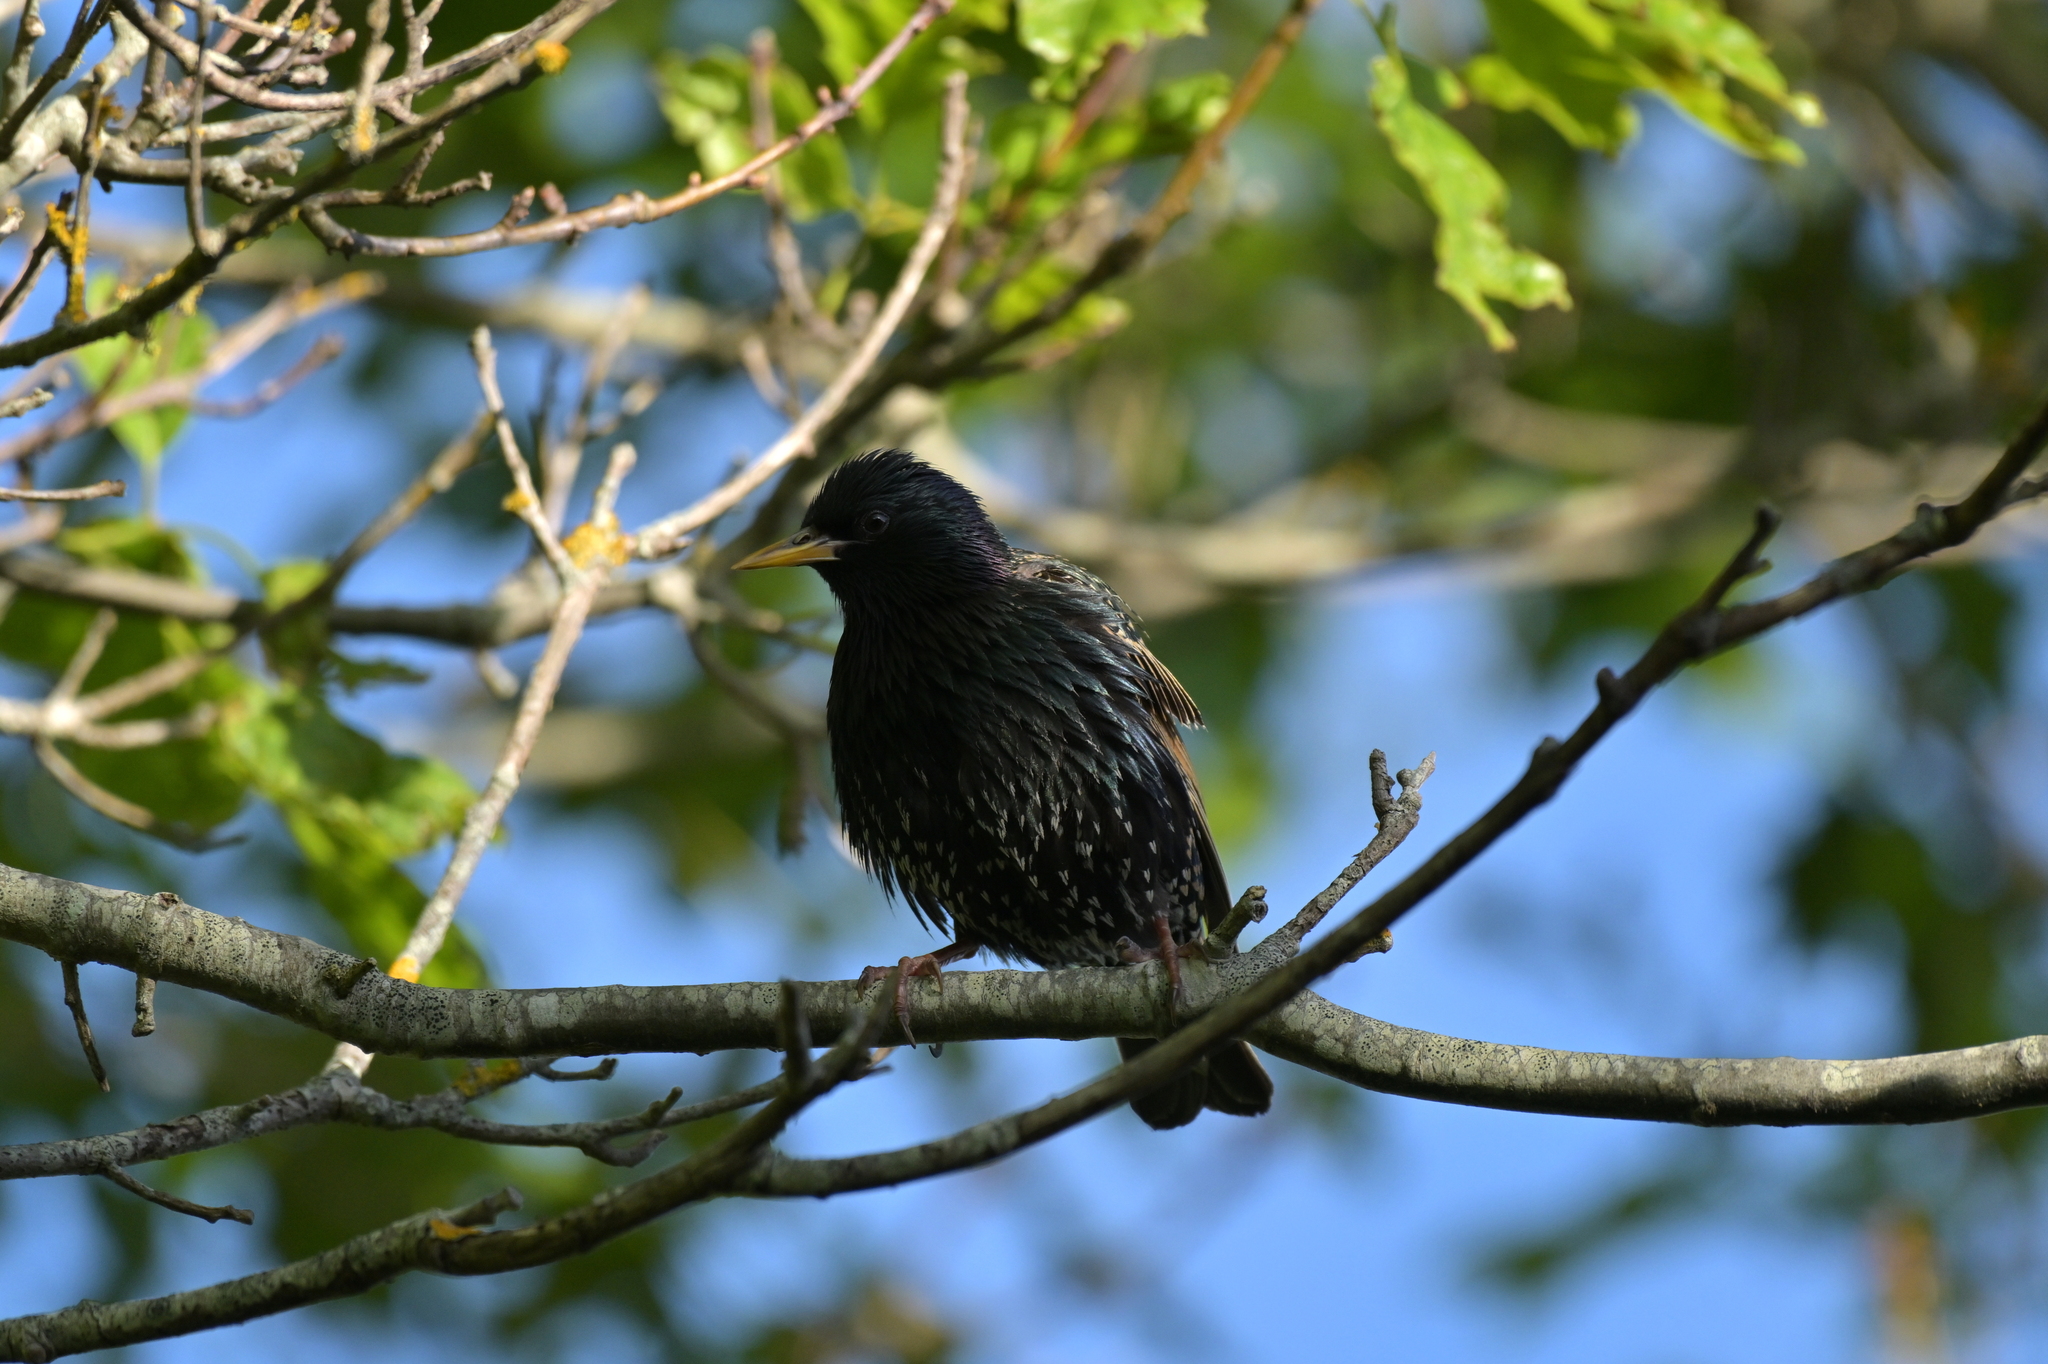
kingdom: Animalia
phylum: Chordata
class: Aves
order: Passeriformes
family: Sturnidae
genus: Sturnus
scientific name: Sturnus vulgaris
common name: Common starling
